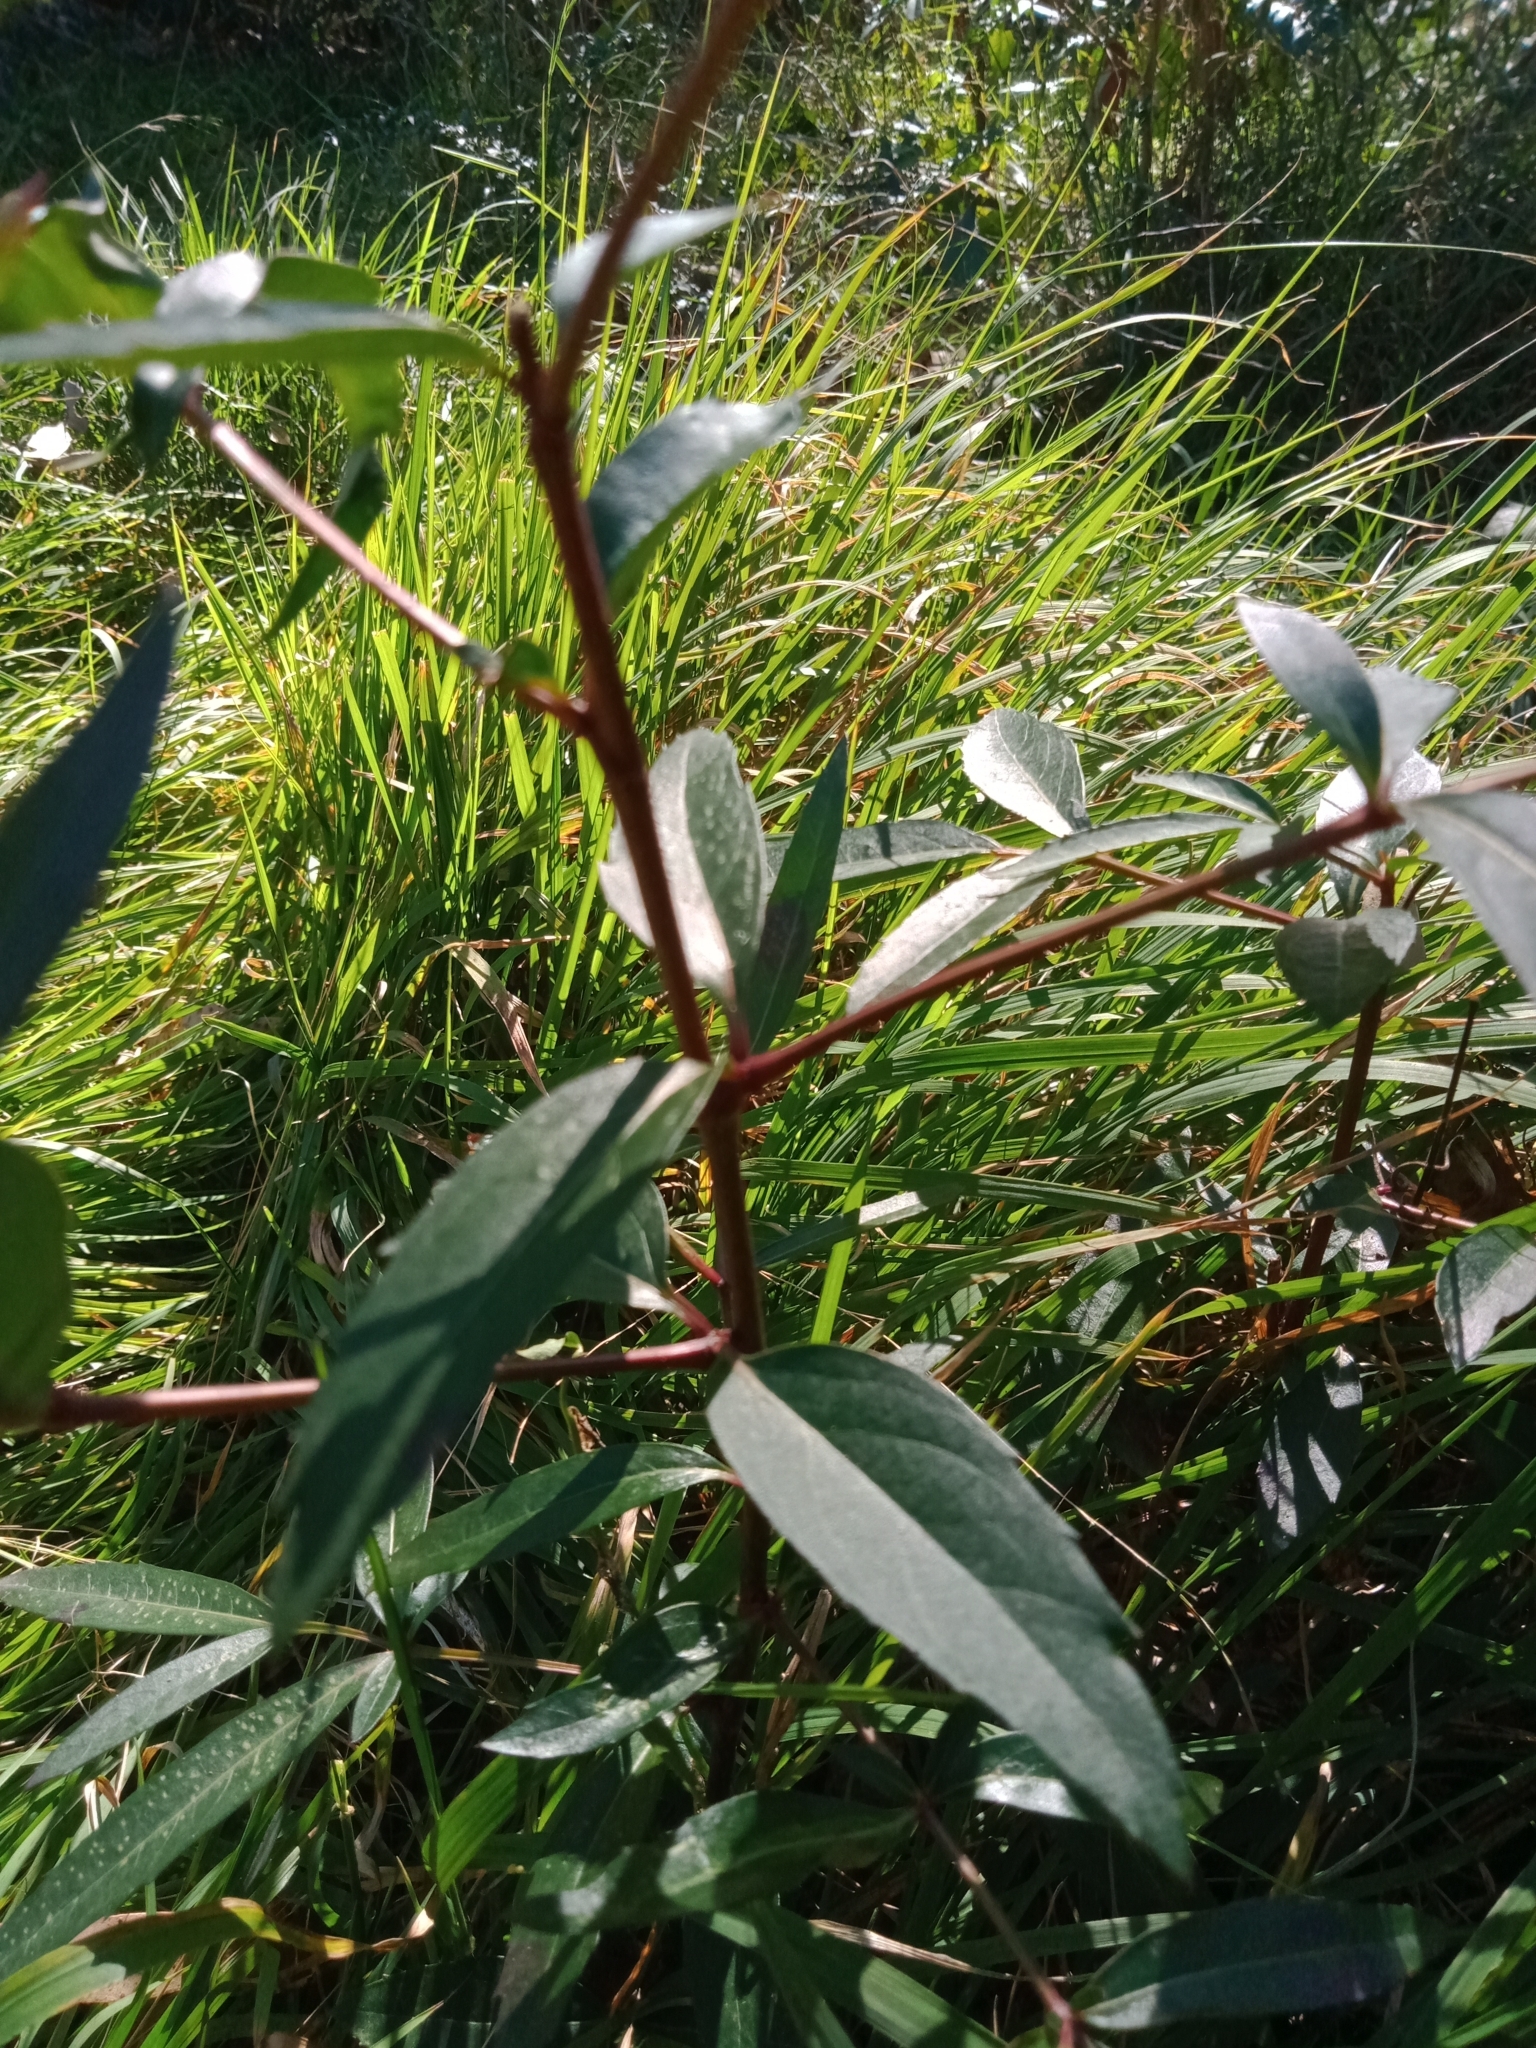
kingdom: Plantae
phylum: Tracheophyta
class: Magnoliopsida
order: Apiales
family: Araliaceae
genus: Polyscias
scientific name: Polyscias sambucifolia
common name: Elderberry-ash
